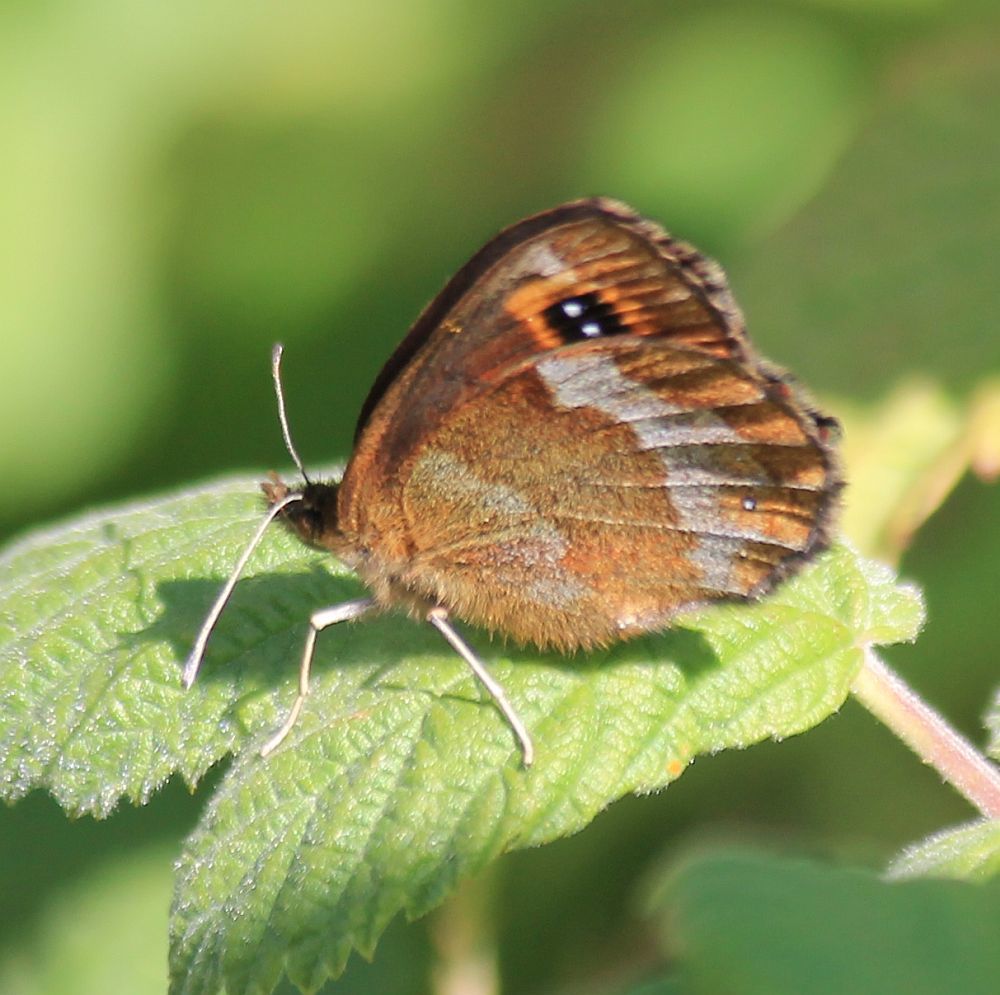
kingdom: Animalia
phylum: Arthropoda
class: Insecta
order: Lepidoptera
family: Nymphalidae
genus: Erebia
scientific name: Erebia aethiops
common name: Scotch argus
